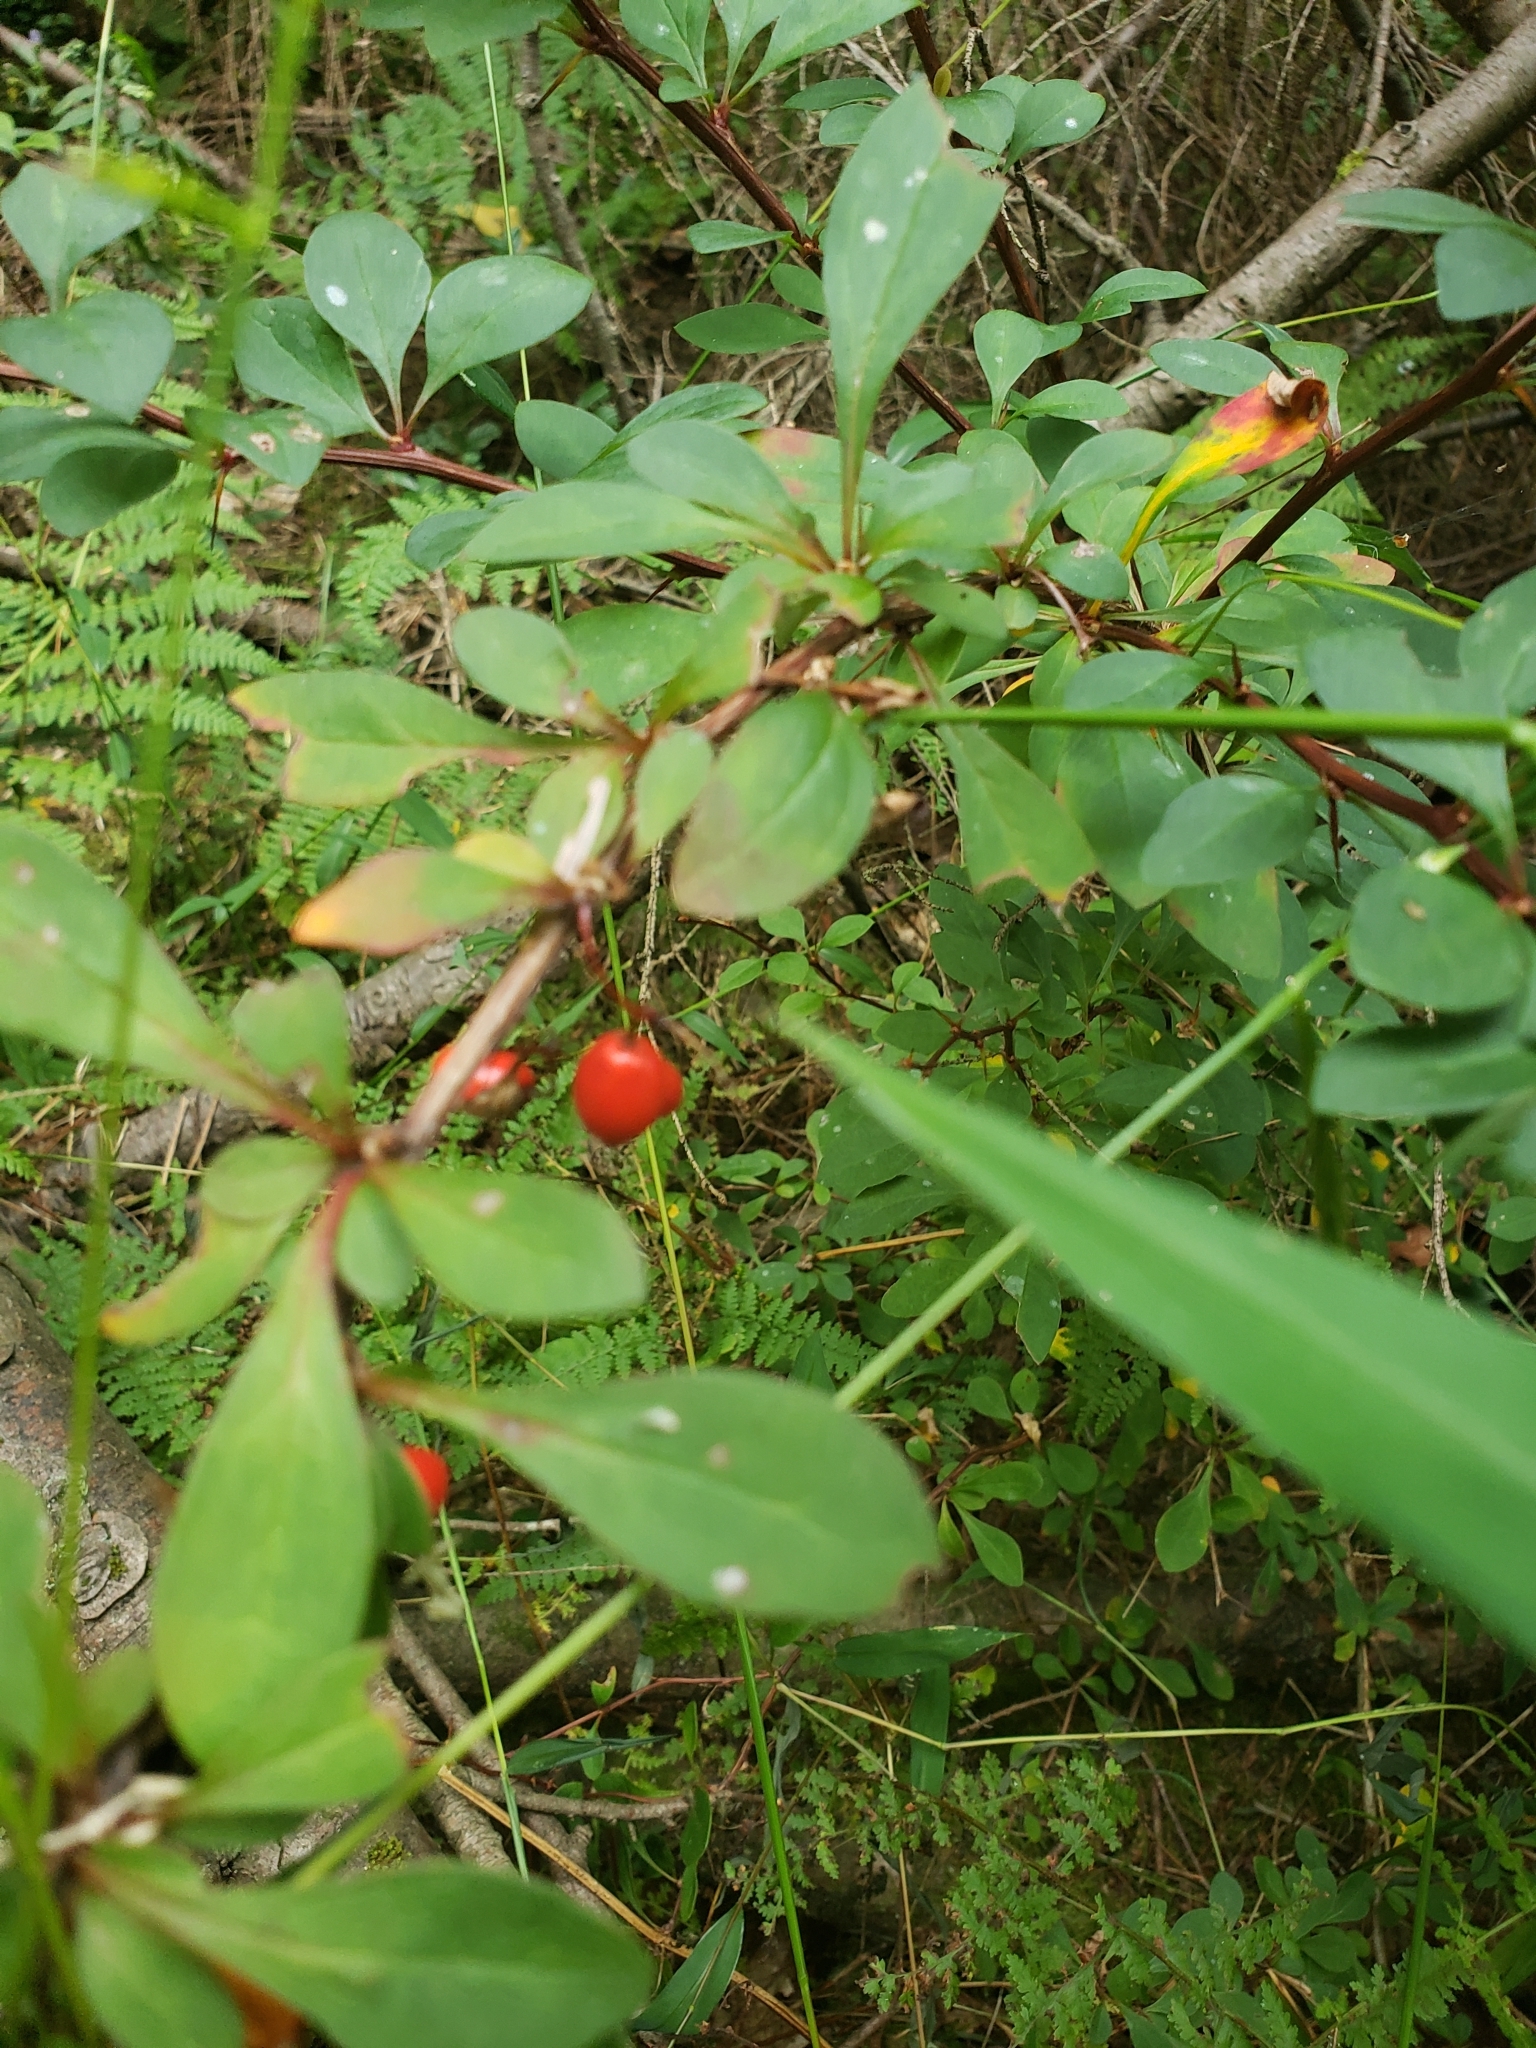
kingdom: Plantae
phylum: Tracheophyta
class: Magnoliopsida
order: Ranunculales
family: Berberidaceae
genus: Berberis
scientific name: Berberis thunbergii
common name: Japanese barberry
